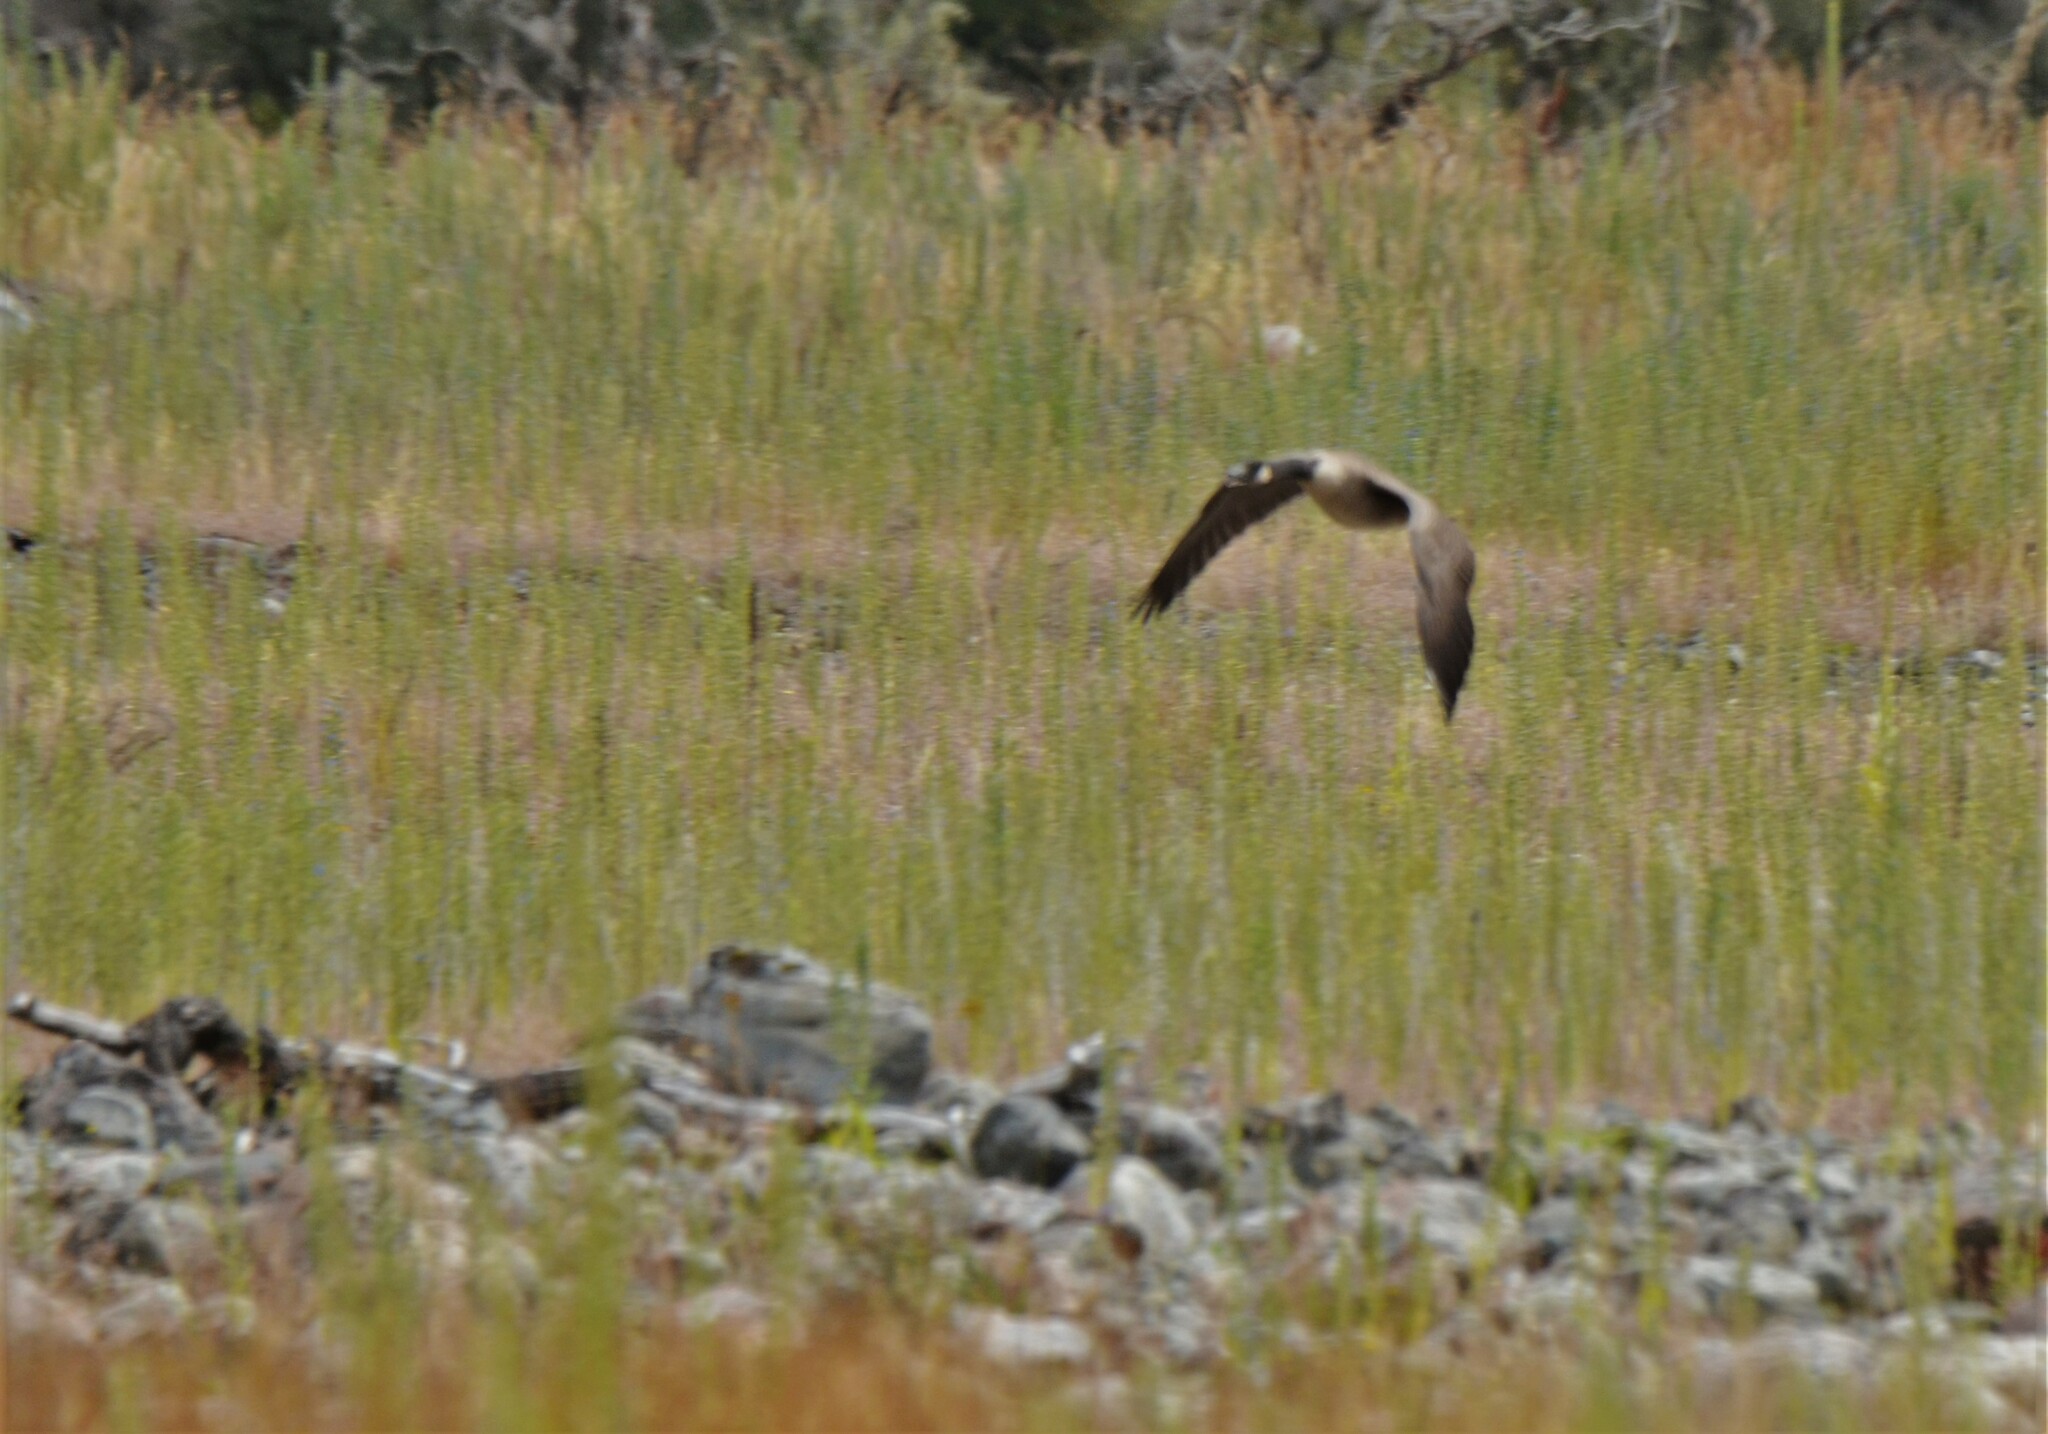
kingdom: Animalia
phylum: Chordata
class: Aves
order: Anseriformes
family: Anatidae
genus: Branta
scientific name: Branta canadensis
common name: Canada goose
